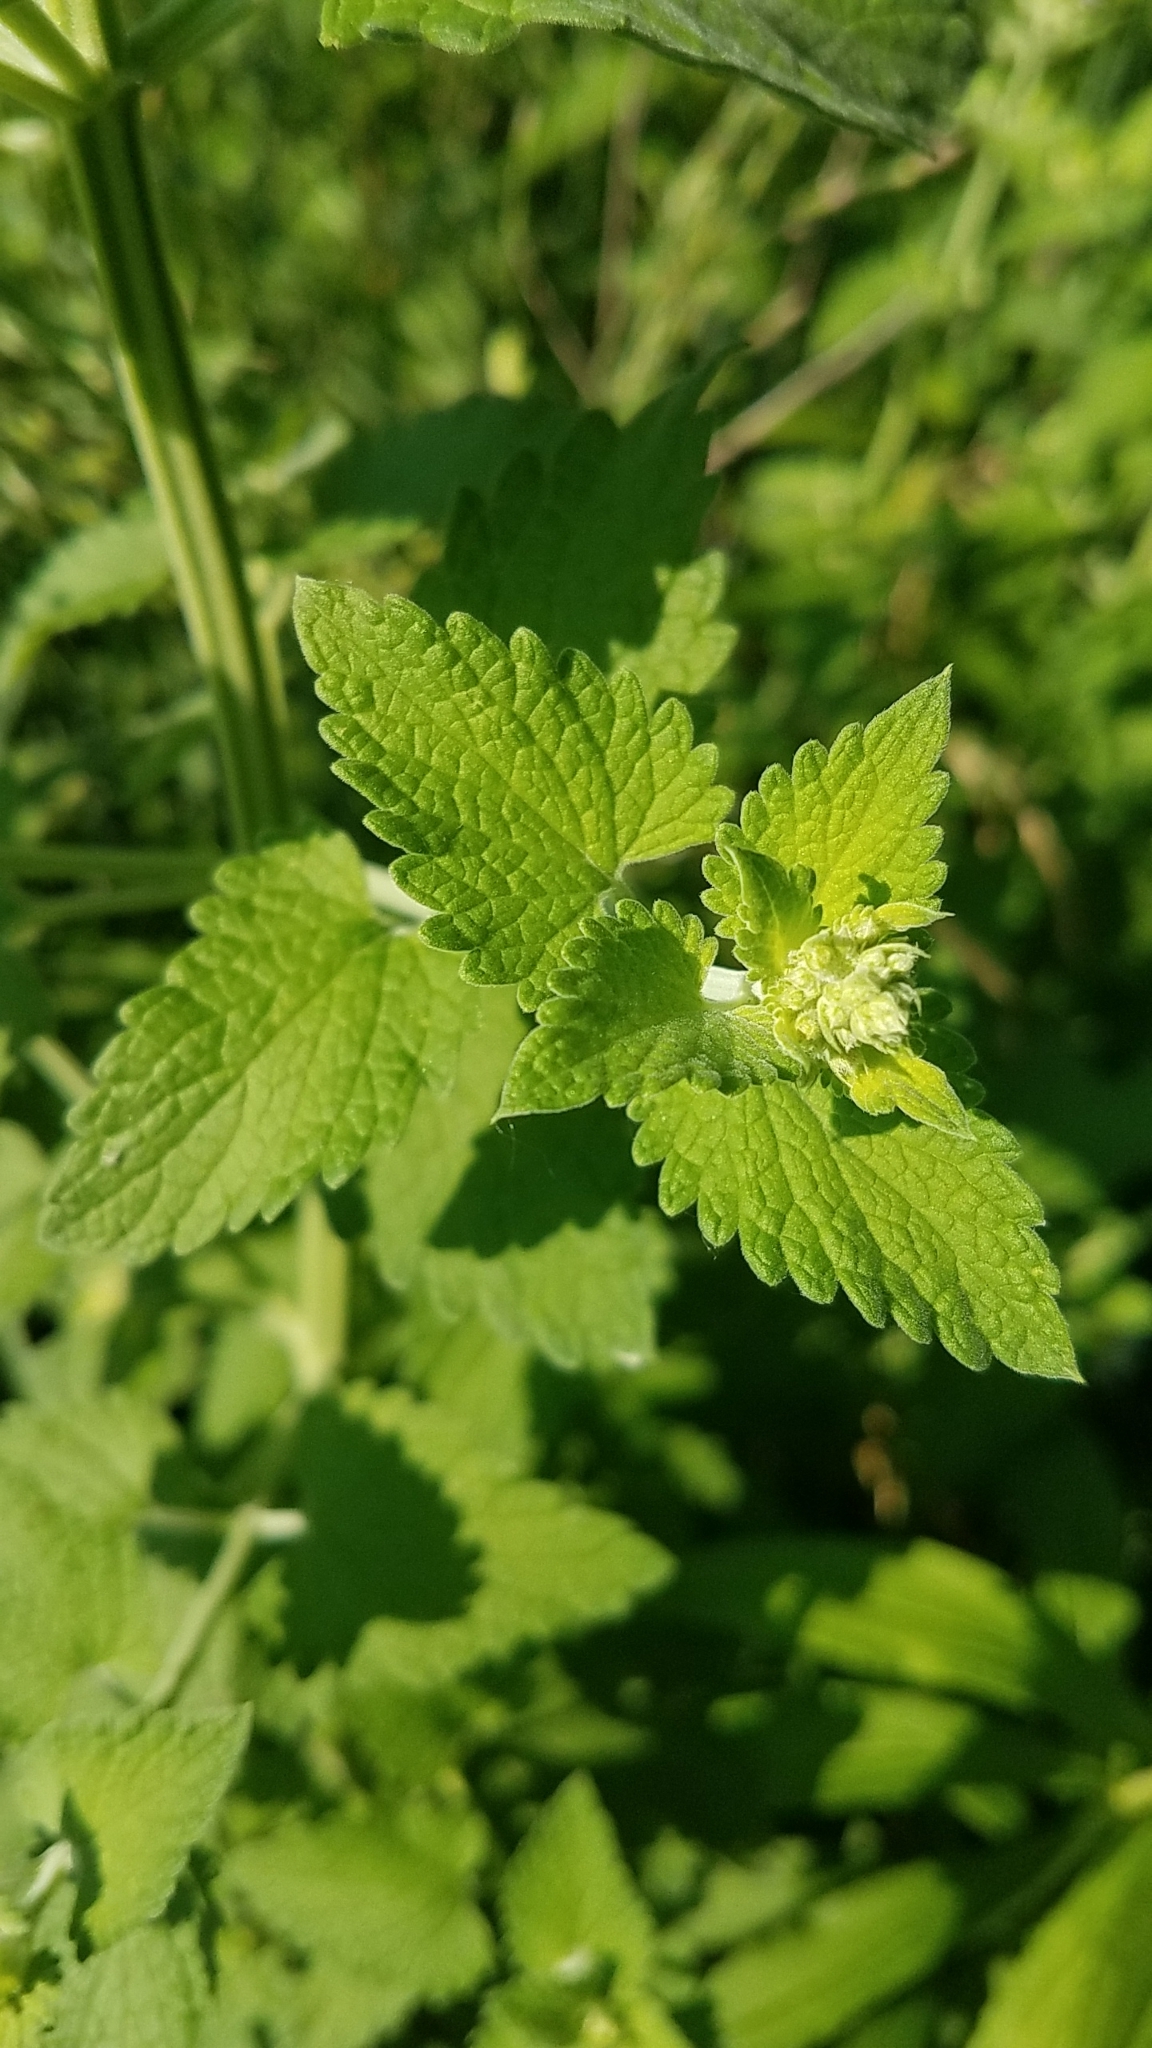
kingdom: Plantae
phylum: Tracheophyta
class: Magnoliopsida
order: Lamiales
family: Lamiaceae
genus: Nepeta
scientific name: Nepeta cataria
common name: Catnip
